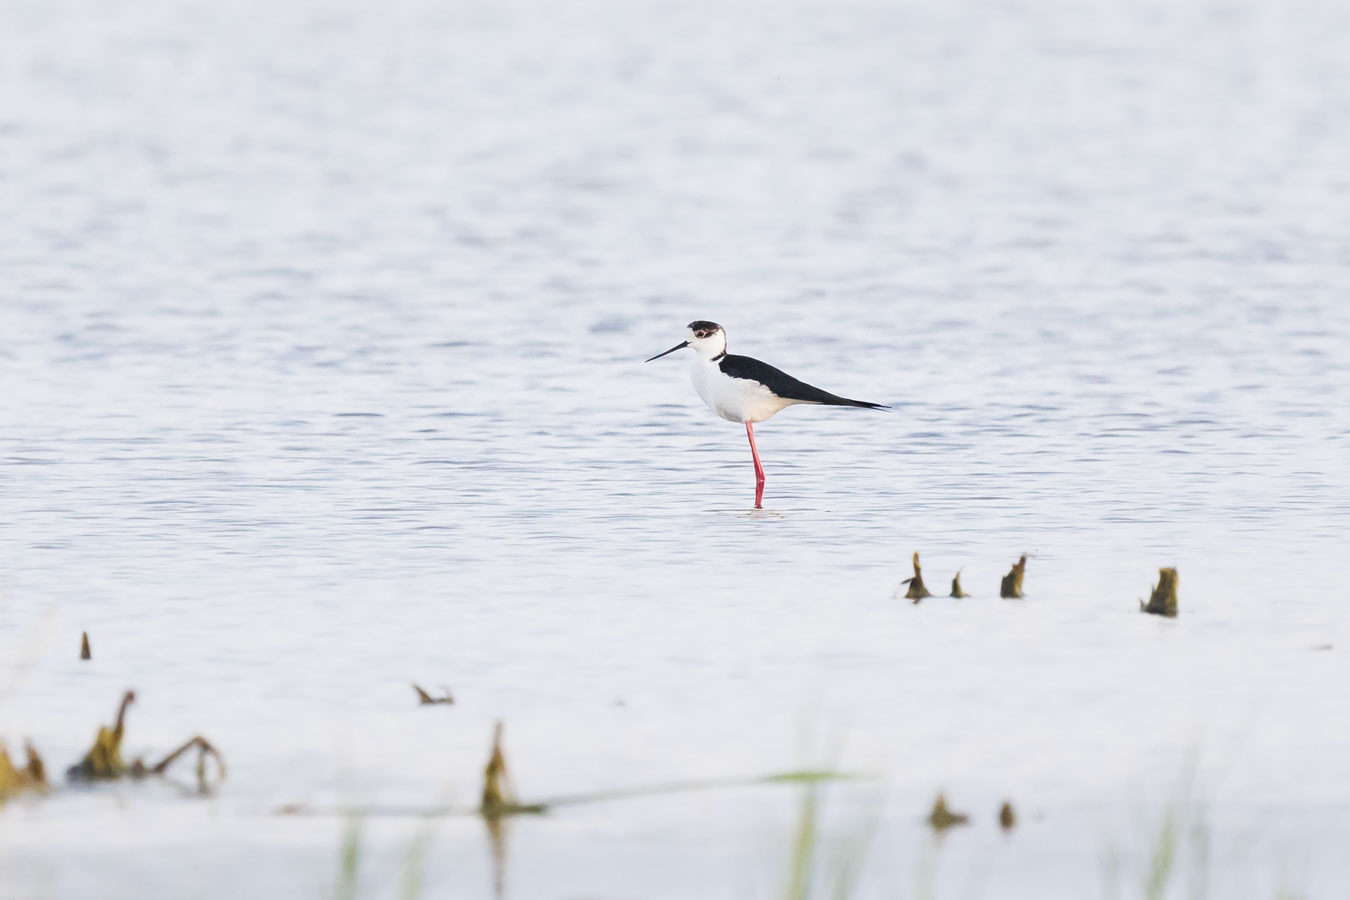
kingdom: Animalia
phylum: Chordata
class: Aves
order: Charadriiformes
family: Recurvirostridae
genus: Himantopus
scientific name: Himantopus himantopus
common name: Black-winged stilt
